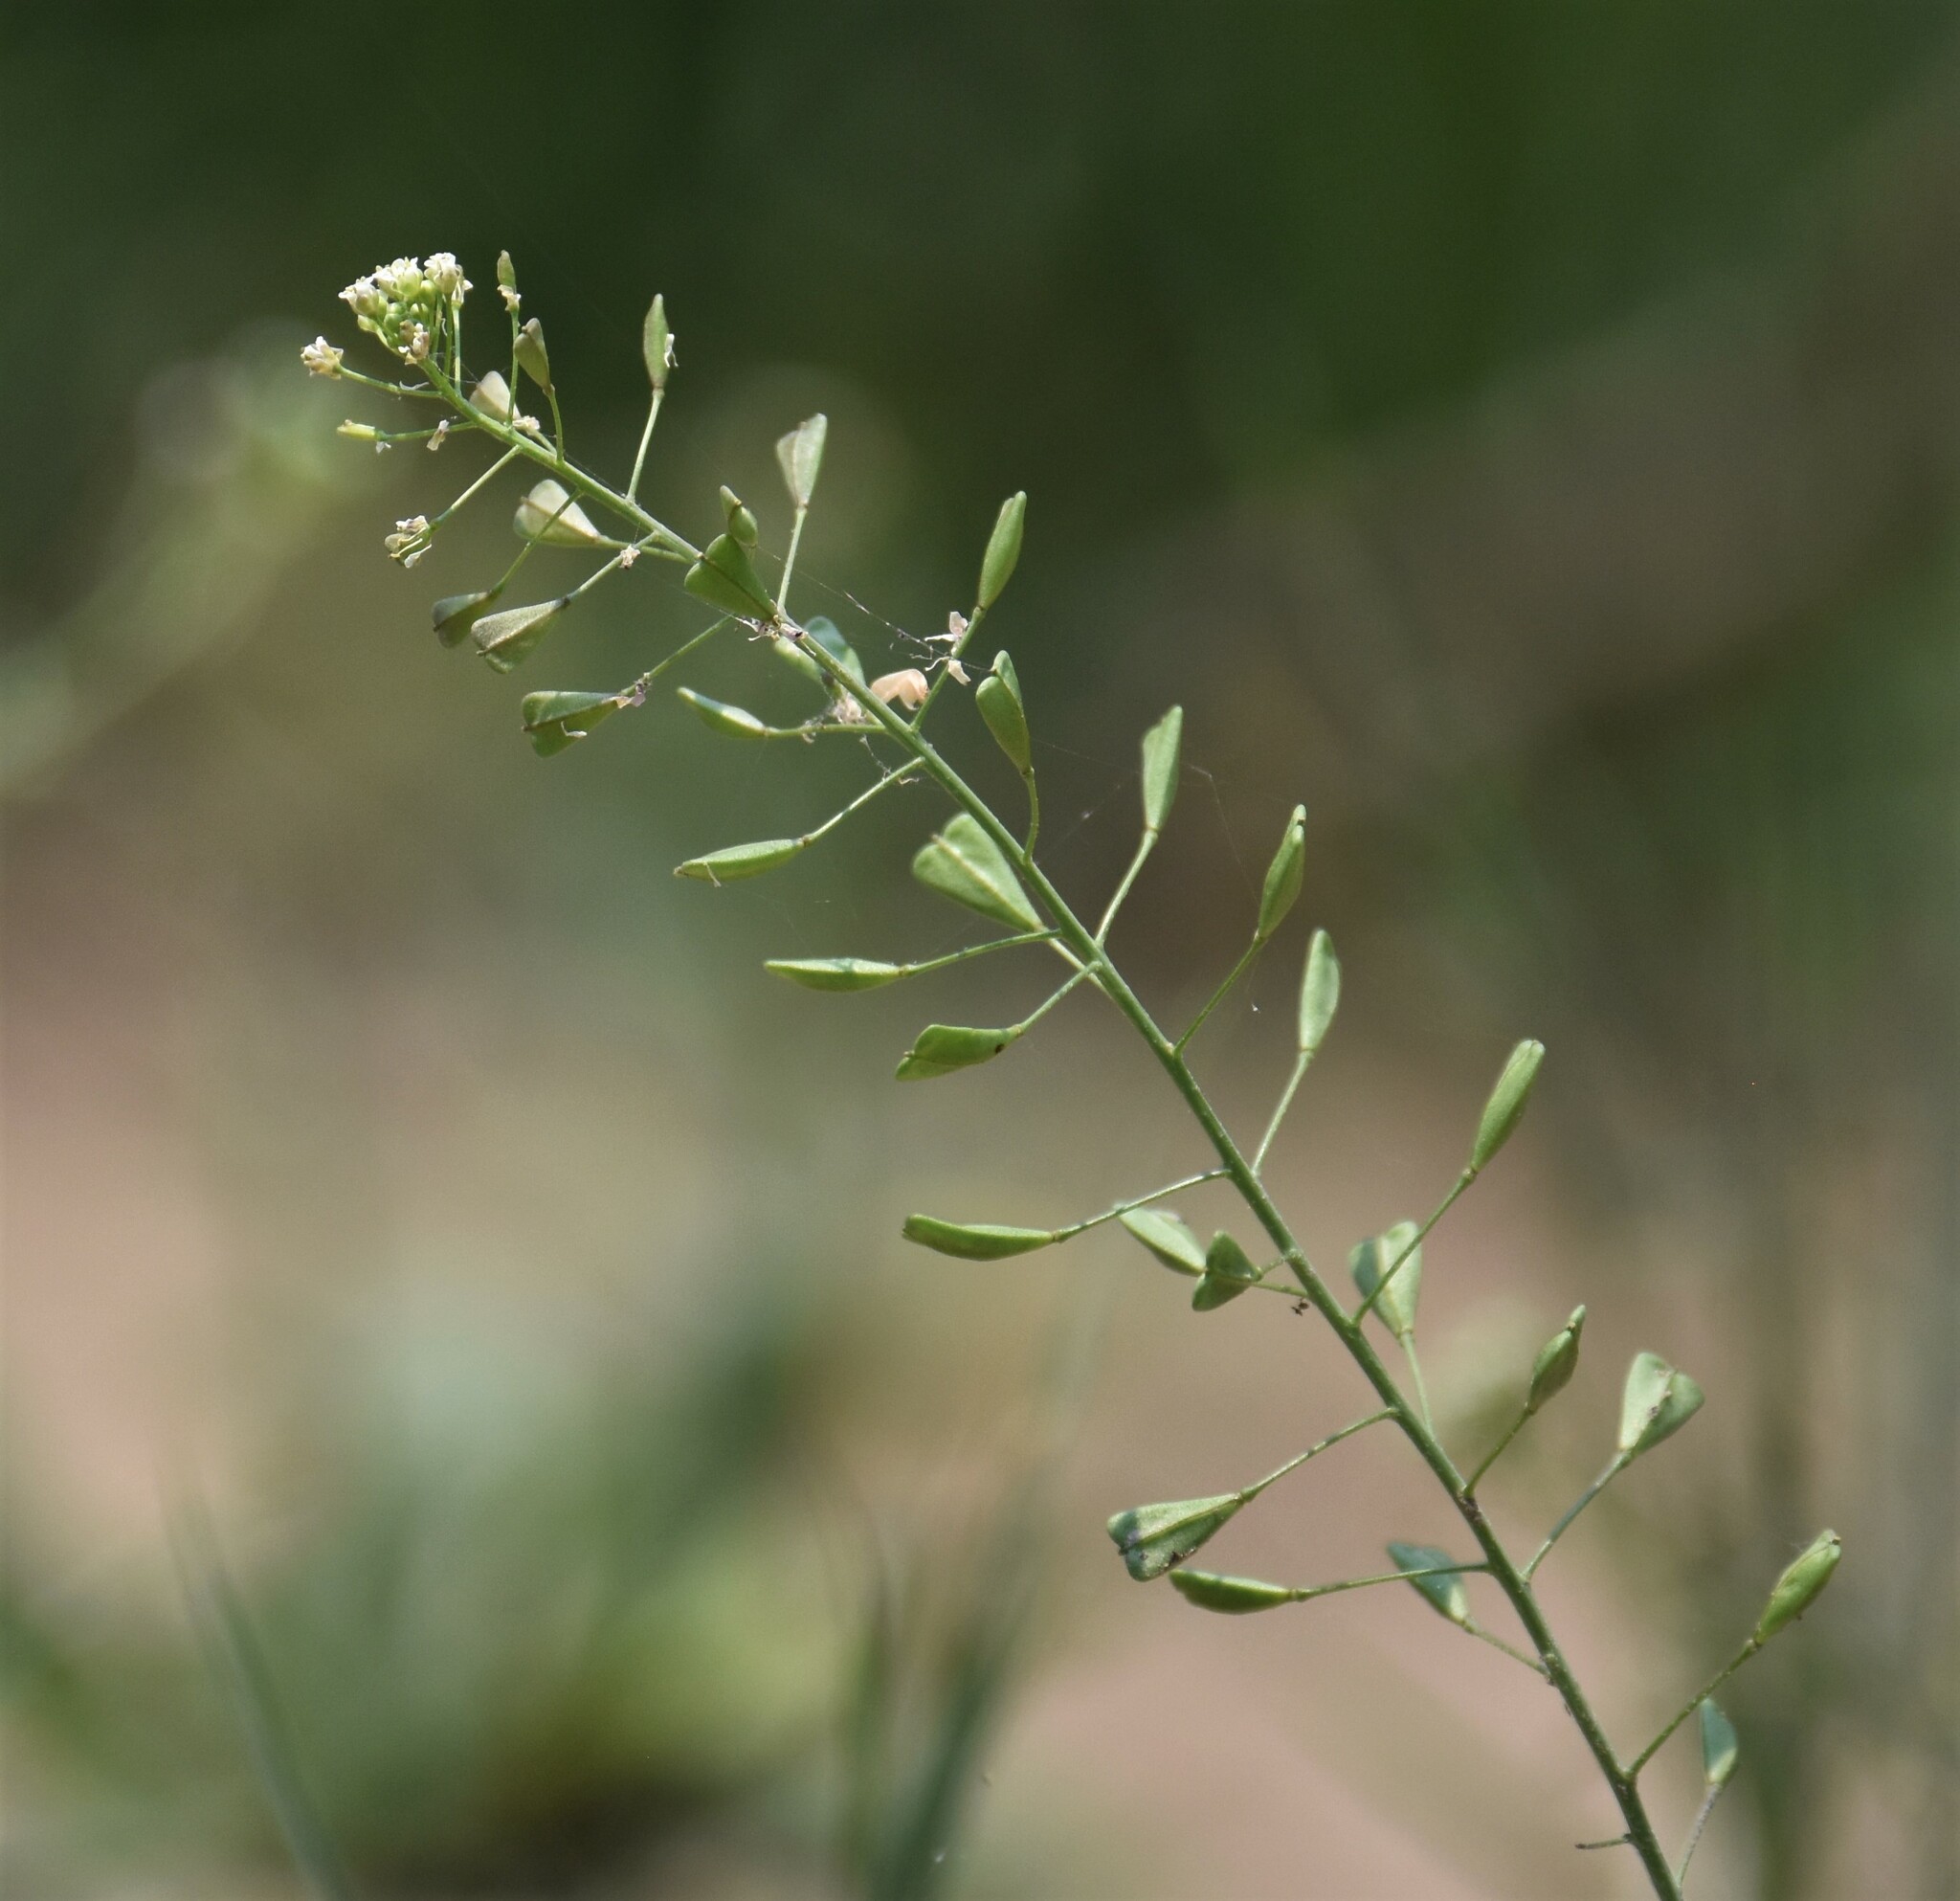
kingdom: Plantae
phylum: Tracheophyta
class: Magnoliopsida
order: Brassicales
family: Brassicaceae
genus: Capsella
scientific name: Capsella bursa-pastoris
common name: Shepherd's purse
